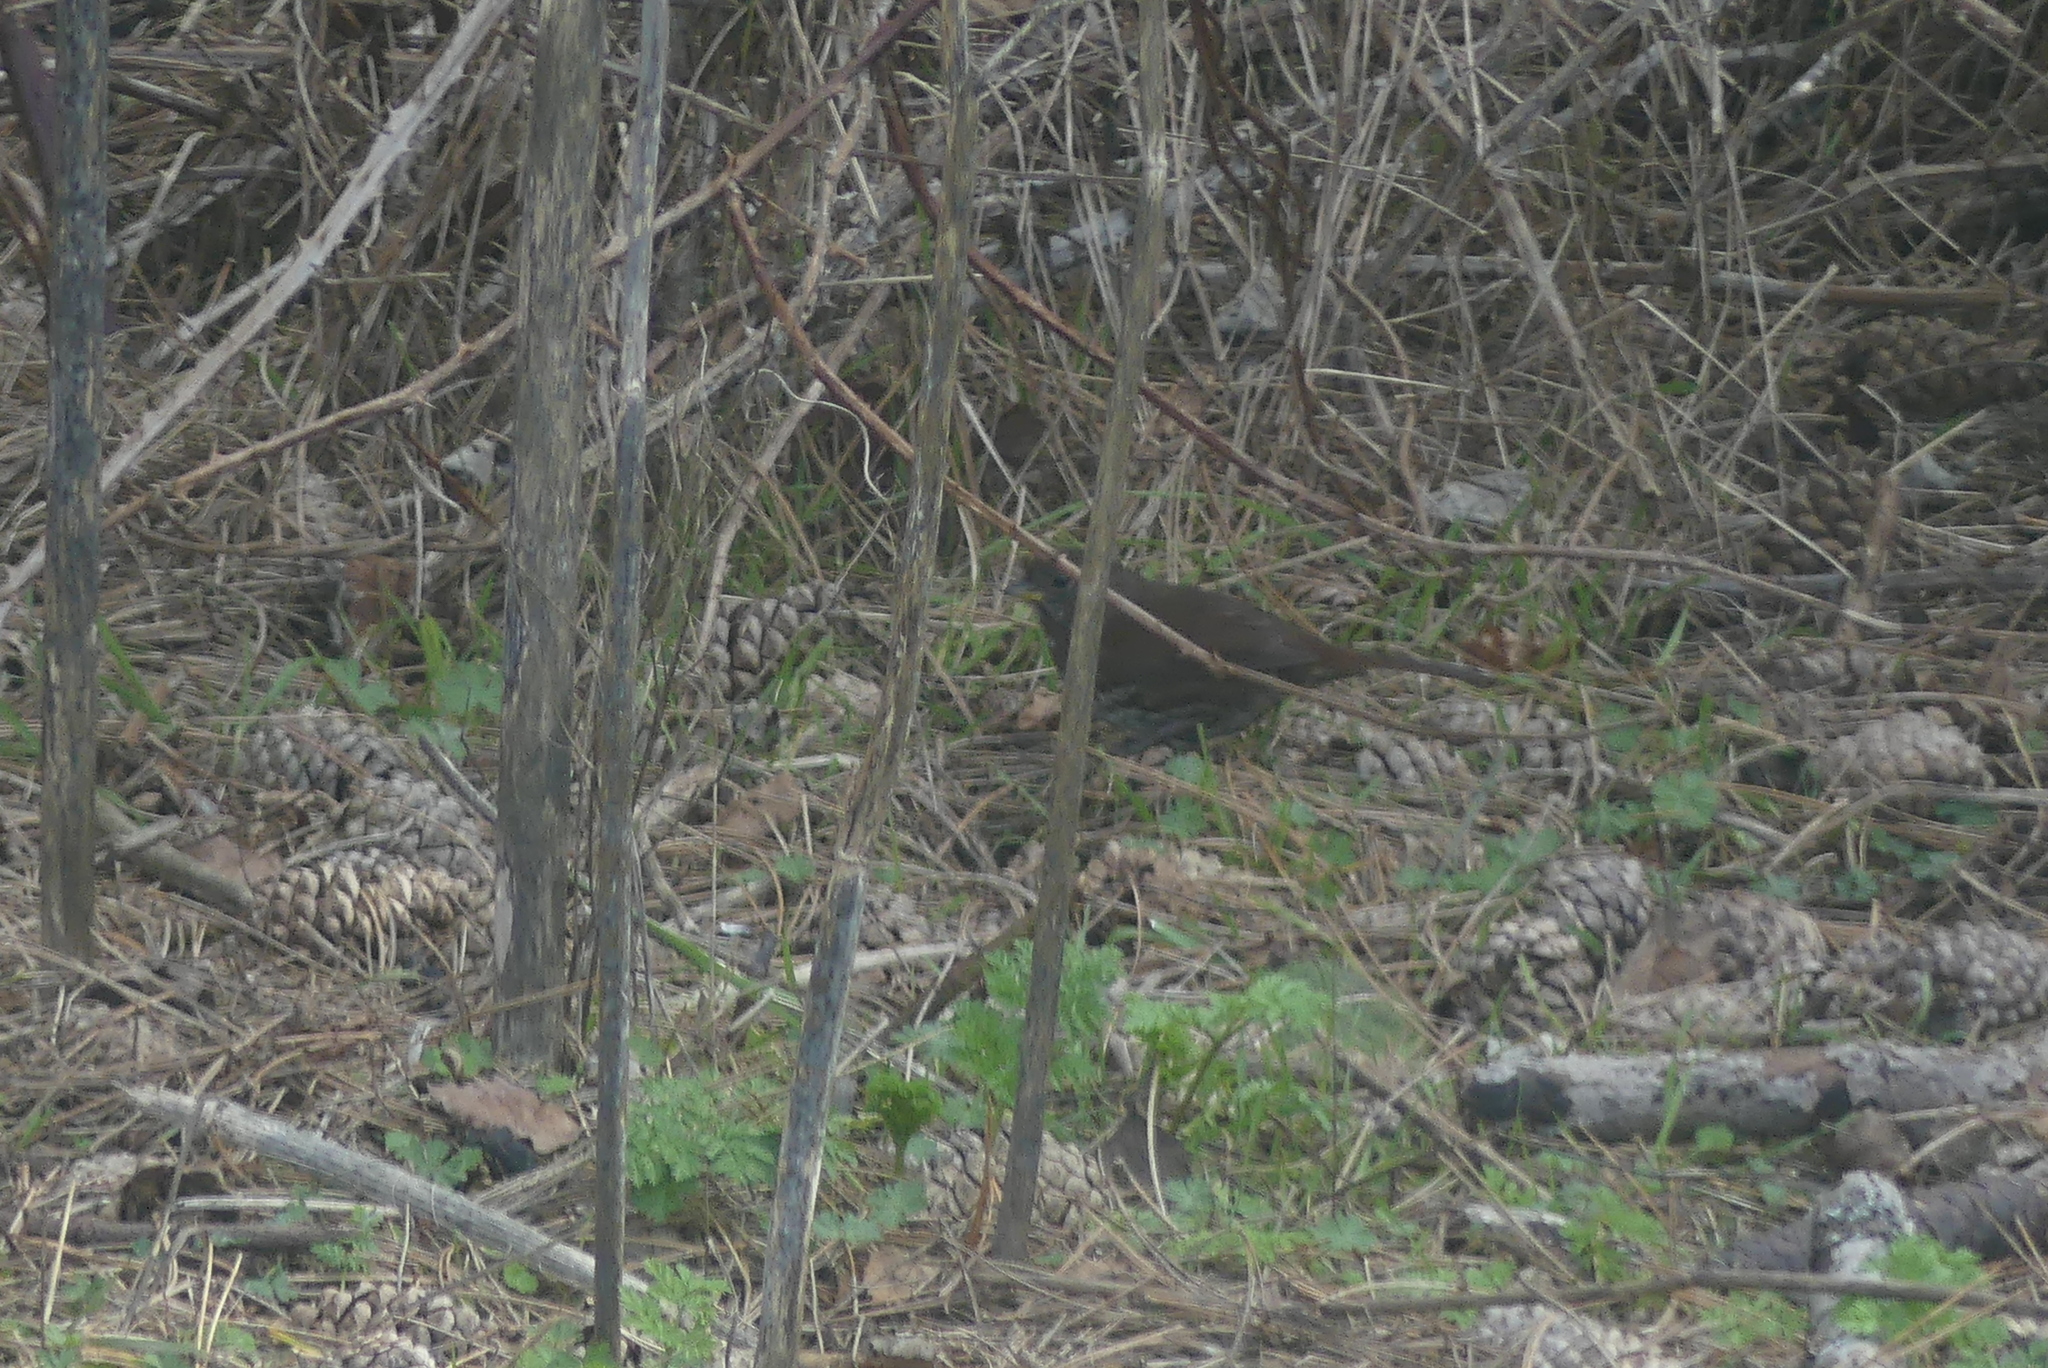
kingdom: Animalia
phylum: Chordata
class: Aves
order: Passeriformes
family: Passerellidae
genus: Passerella
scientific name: Passerella iliaca
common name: Fox sparrow
